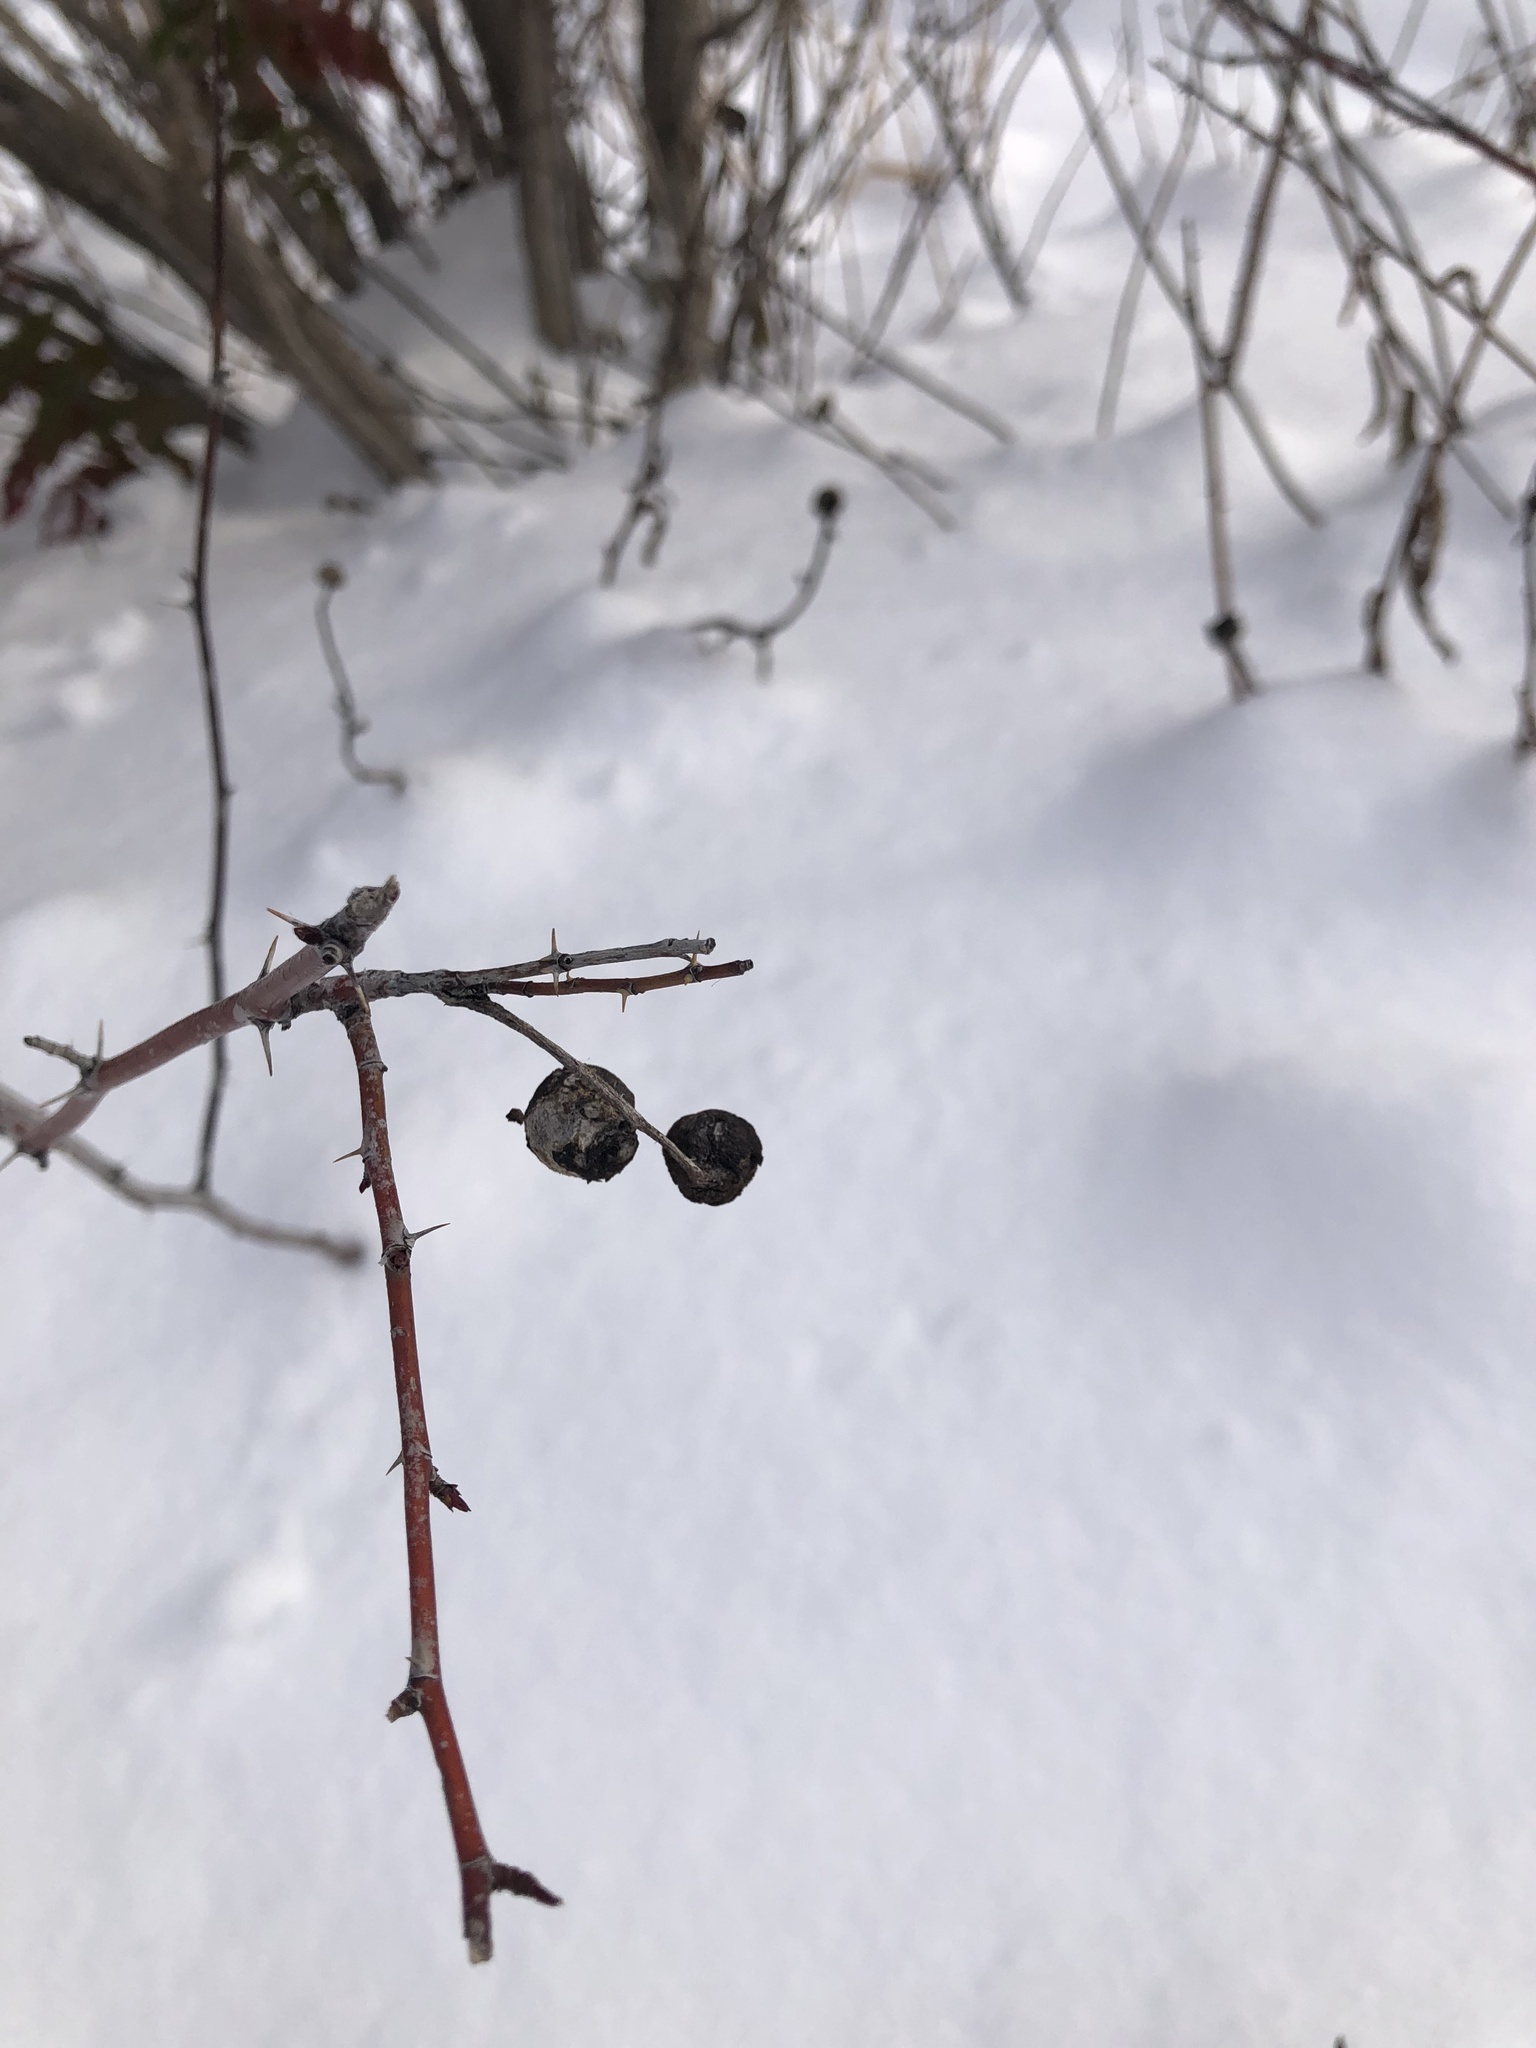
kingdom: Animalia
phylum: Arthropoda
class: Insecta
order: Hymenoptera
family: Cynipidae
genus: Diplolepis
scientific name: Diplolepis variabilis
